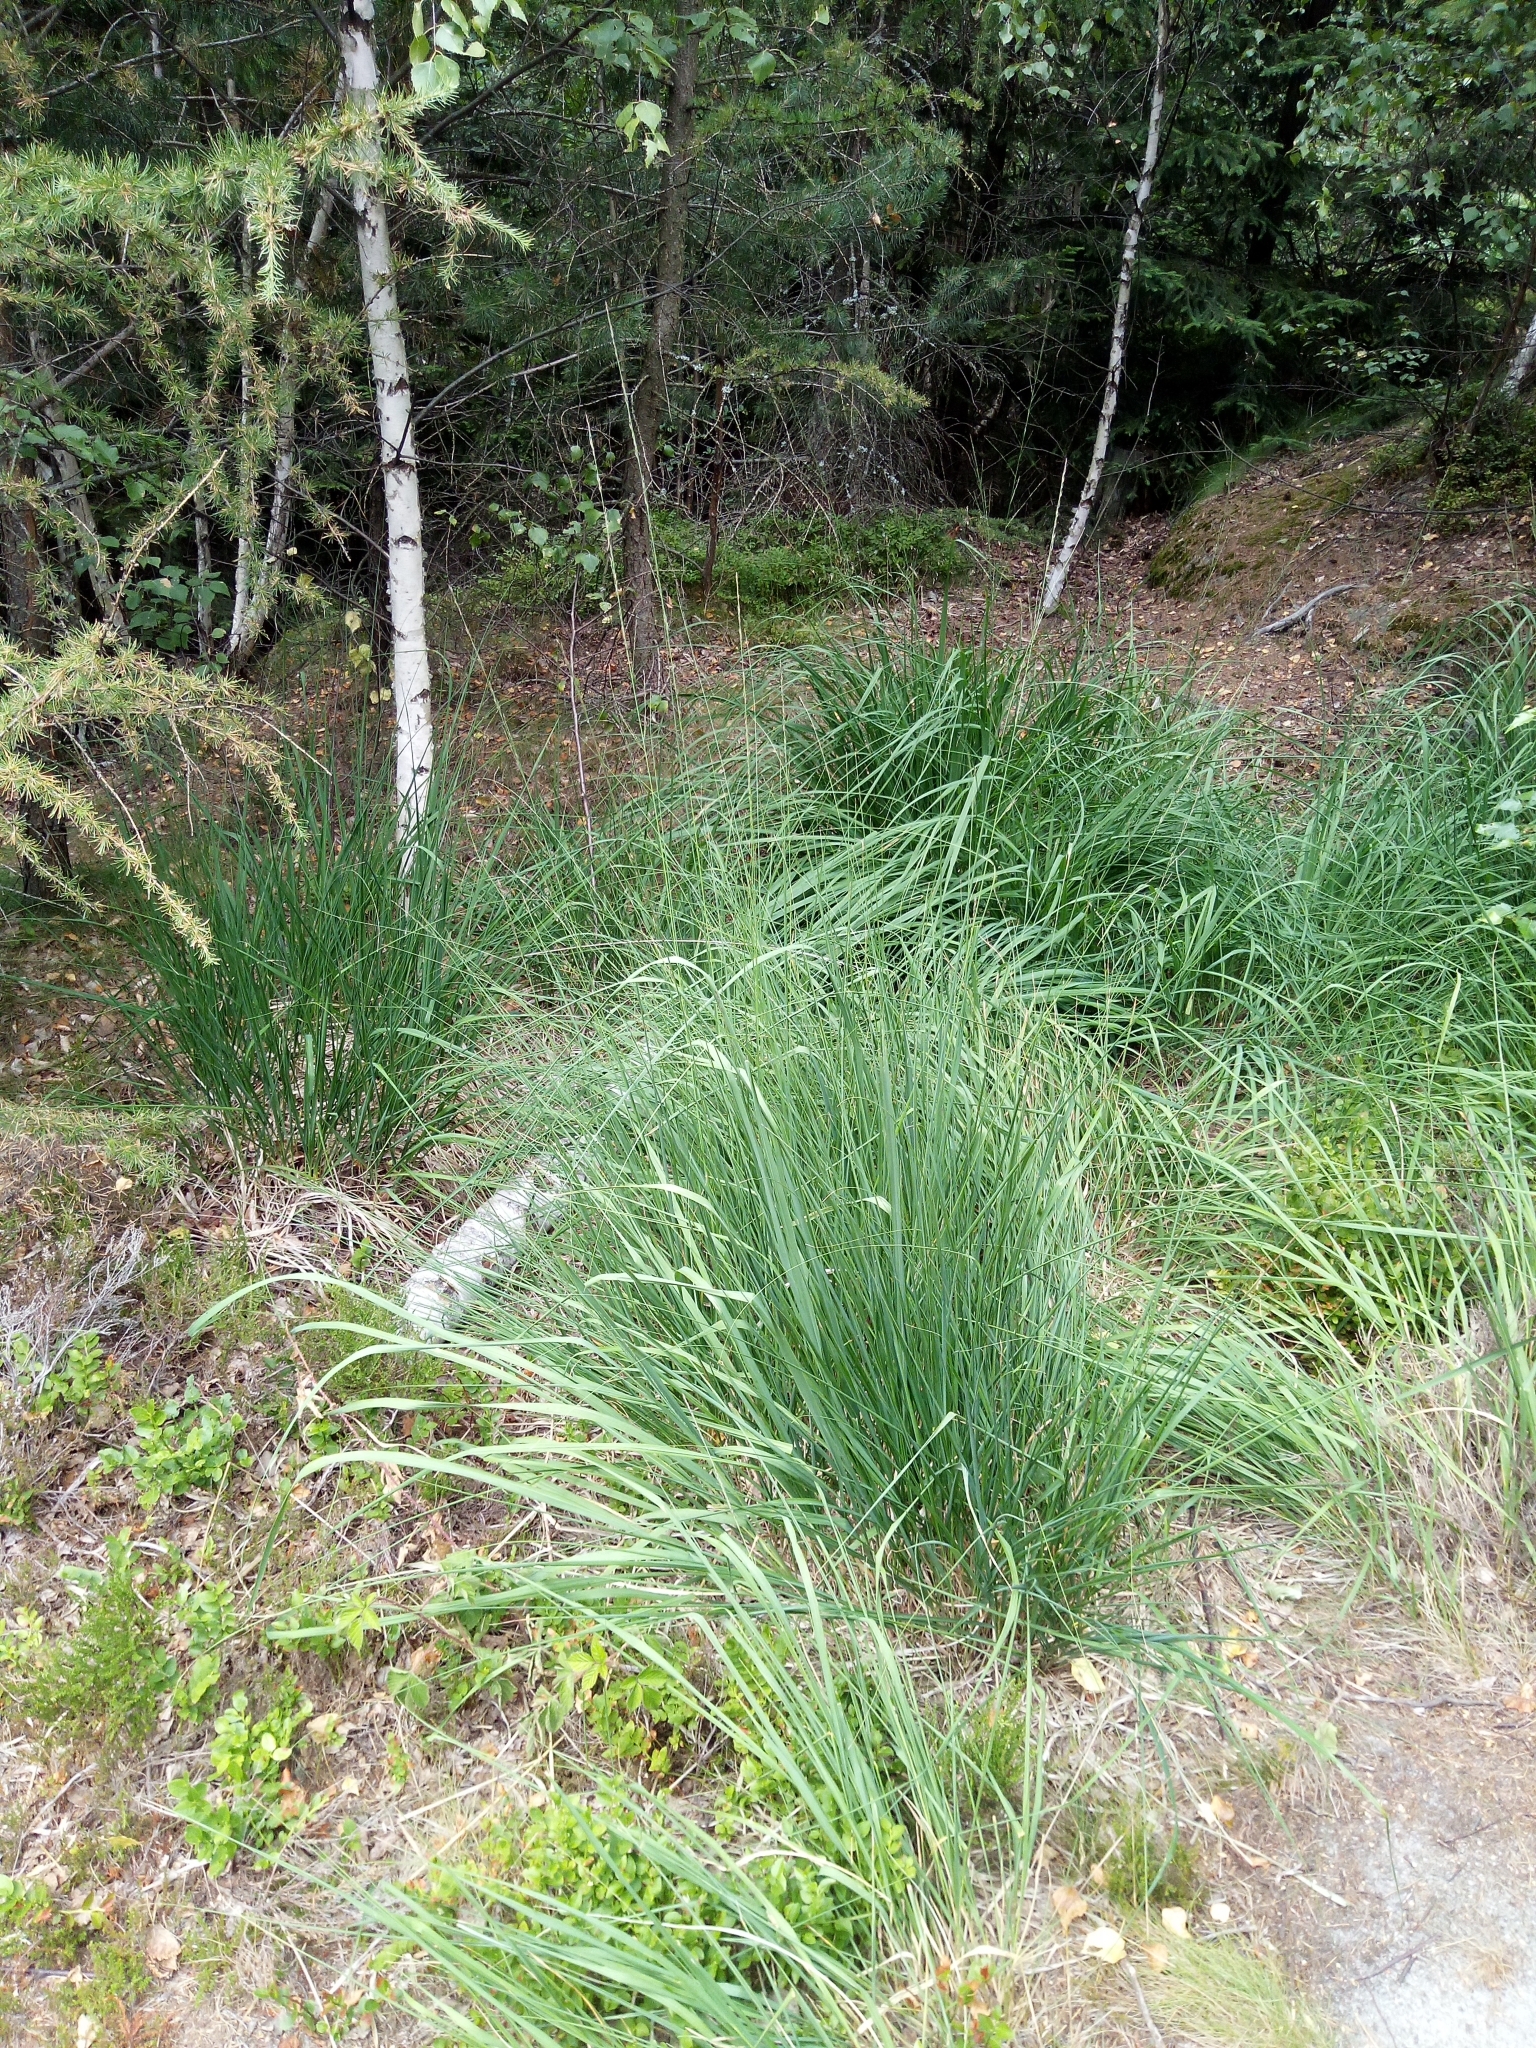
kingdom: Plantae
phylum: Tracheophyta
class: Liliopsida
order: Poales
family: Poaceae
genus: Molinia
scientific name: Molinia arundinacea
